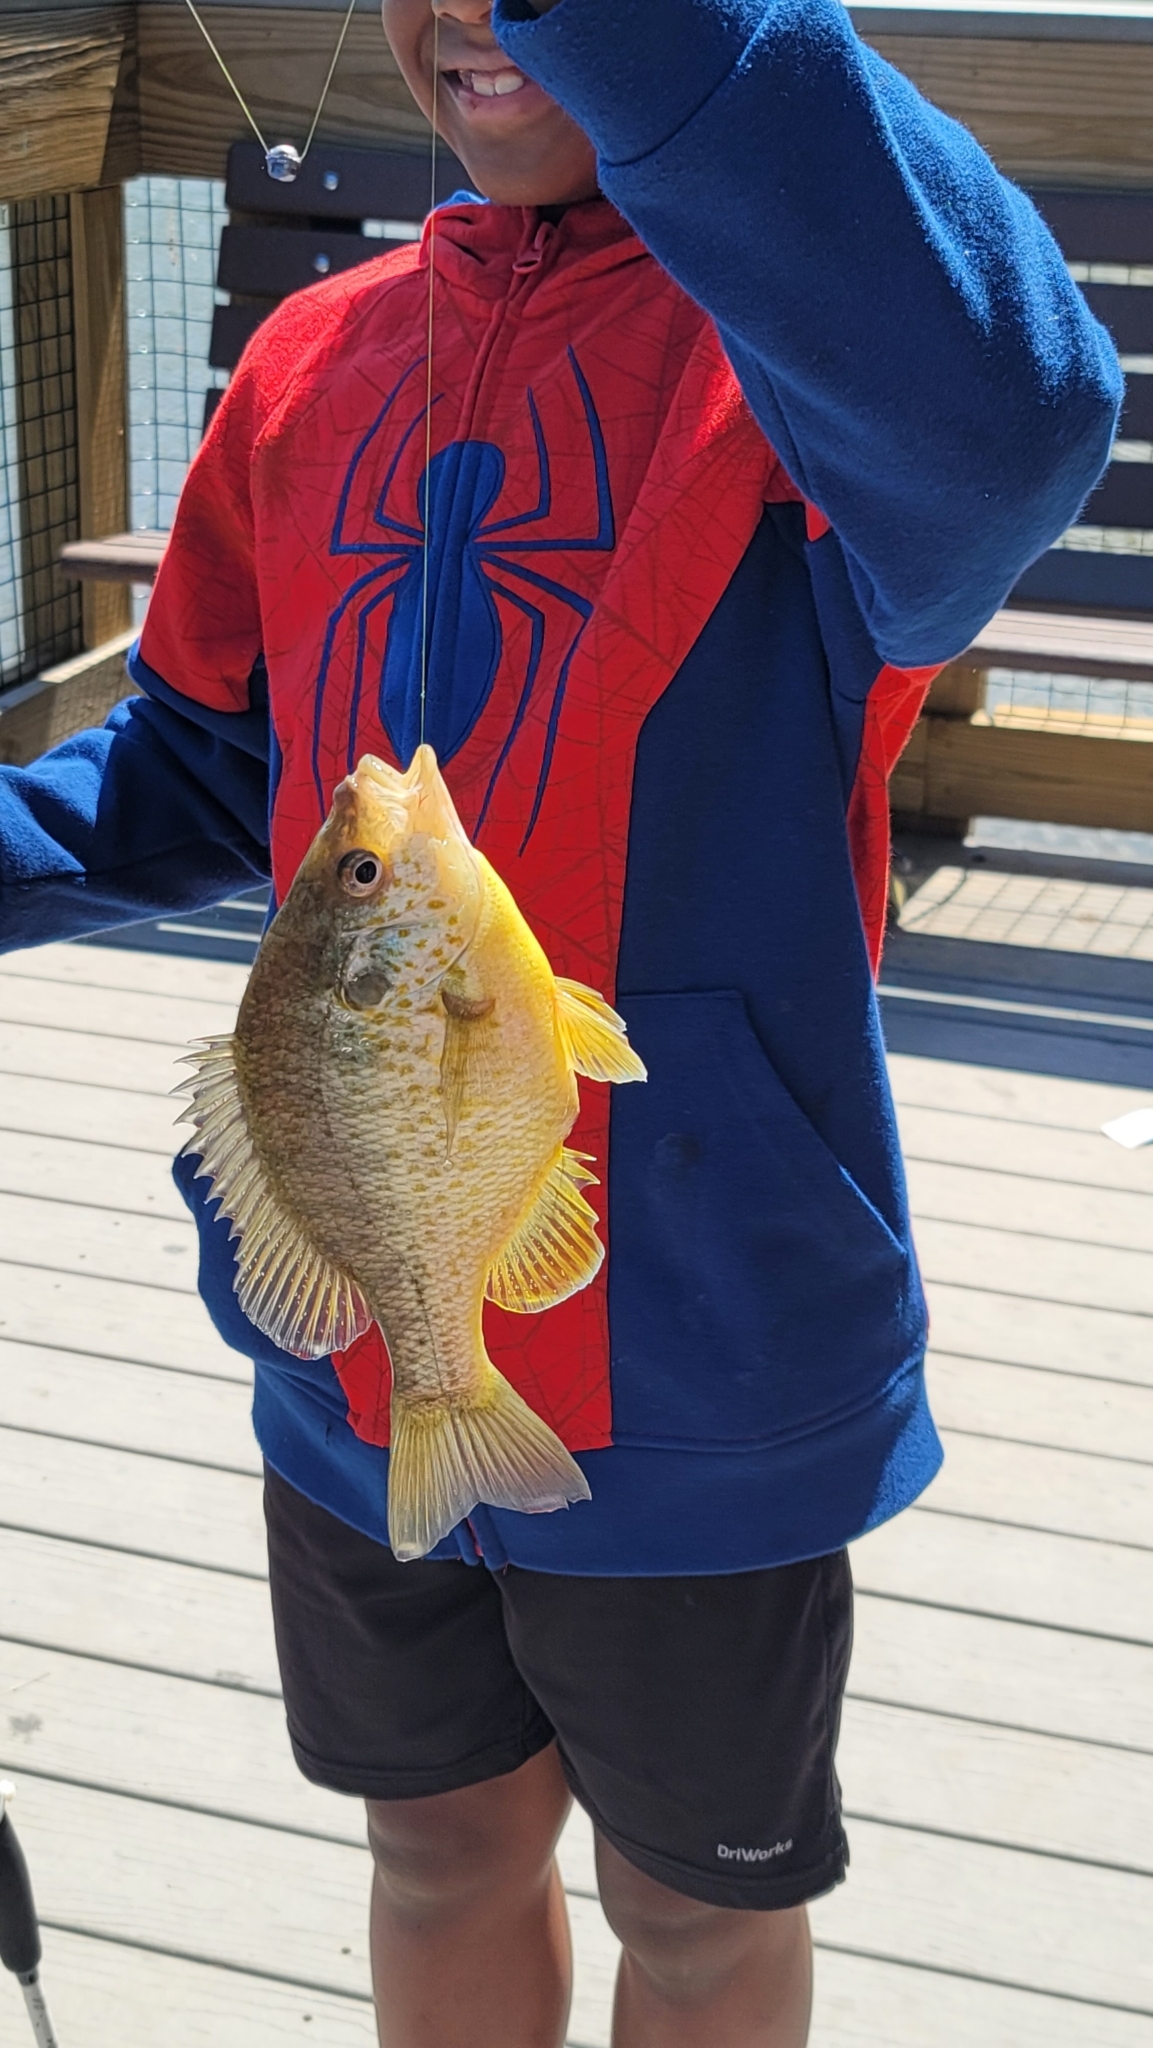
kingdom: Animalia
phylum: Chordata
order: Perciformes
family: Centrarchidae
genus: Lepomis
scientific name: Lepomis microlophus
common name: Redear sunfish
